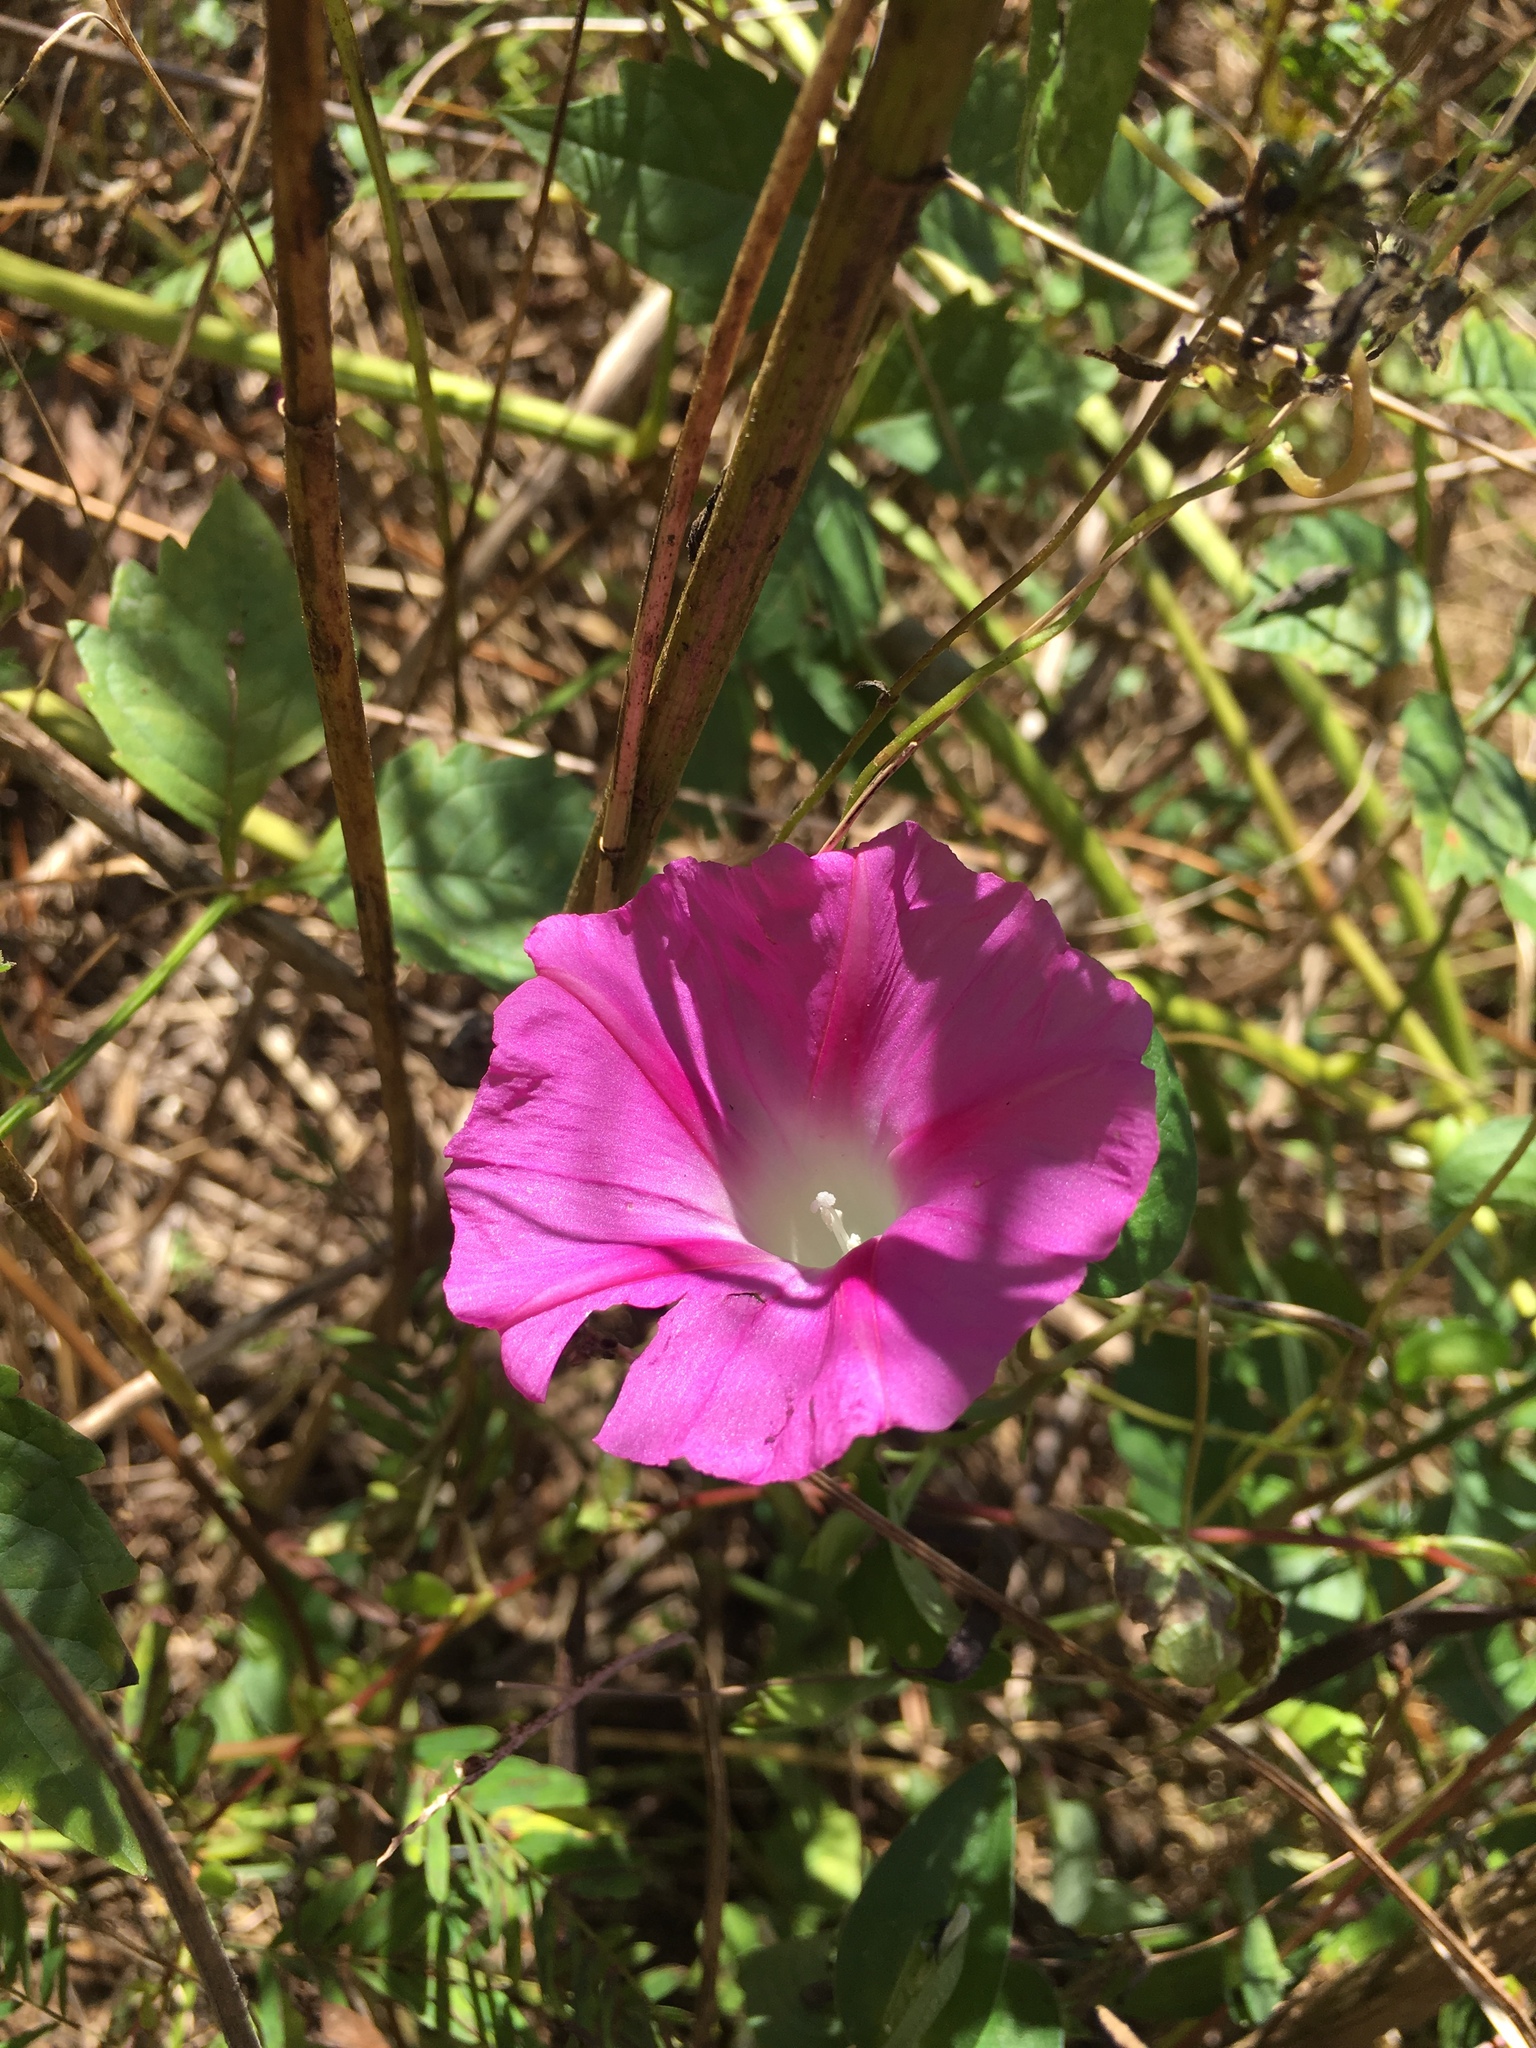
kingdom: Plantae
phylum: Tracheophyta
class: Magnoliopsida
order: Solanales
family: Convolvulaceae
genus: Ipomoea
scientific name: Ipomoea purpurea
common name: Common morning-glory
